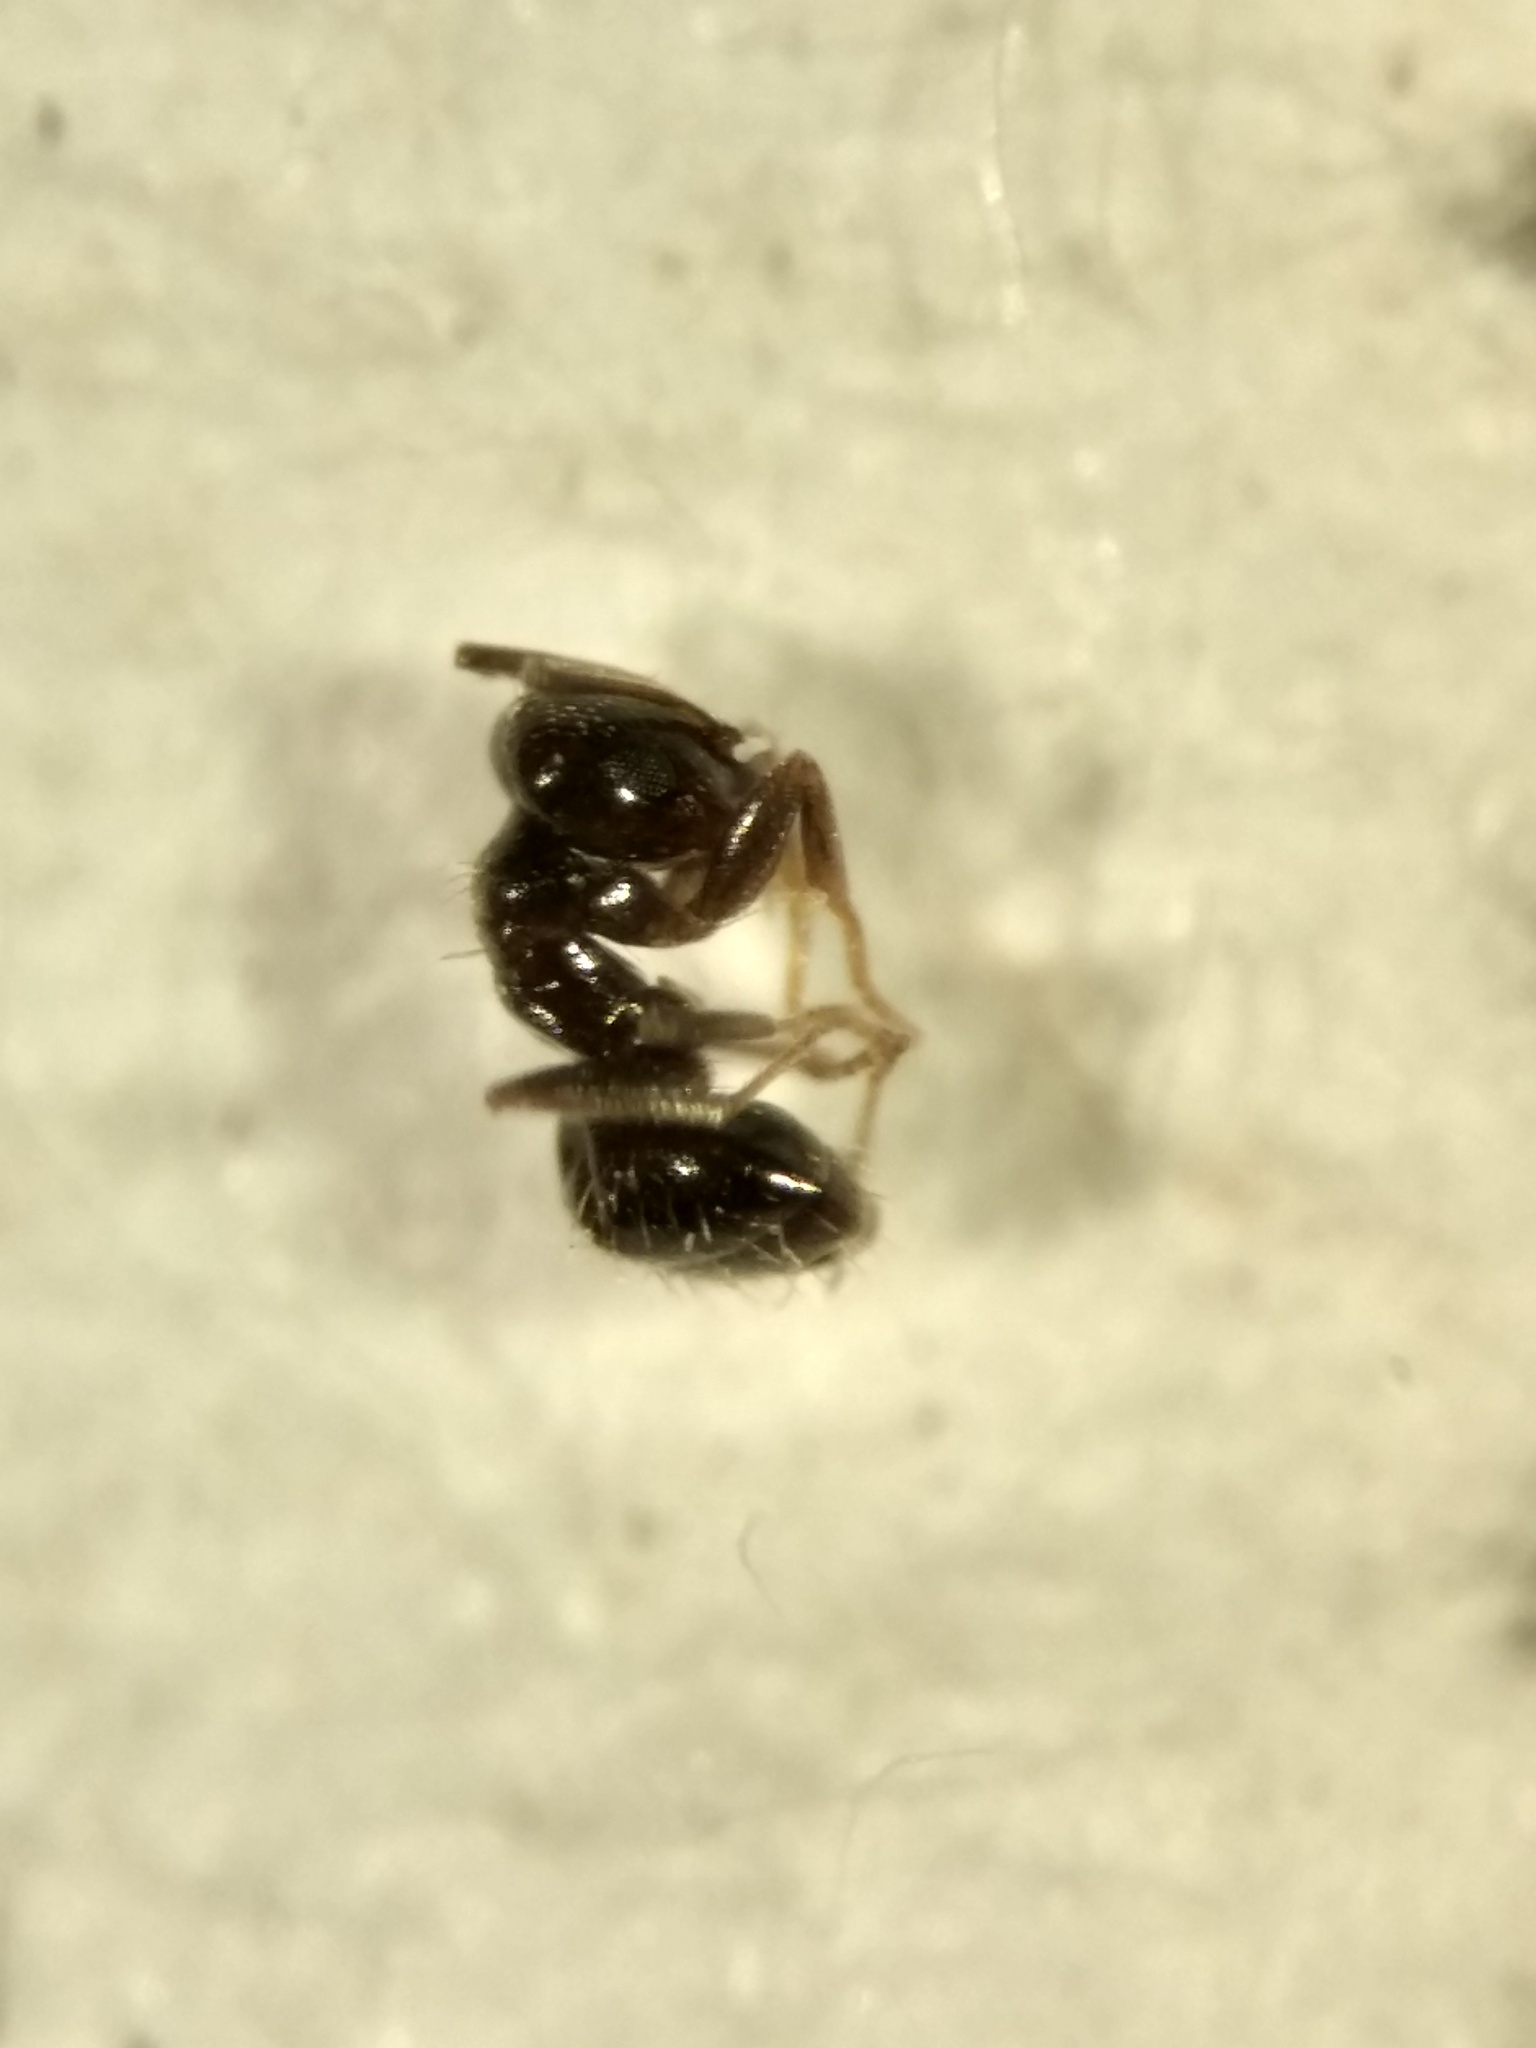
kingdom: Animalia
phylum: Arthropoda
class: Insecta
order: Hymenoptera
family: Formicidae
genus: Brachymyrmex
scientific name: Brachymyrmex patagonicus
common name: Dark rover ant
